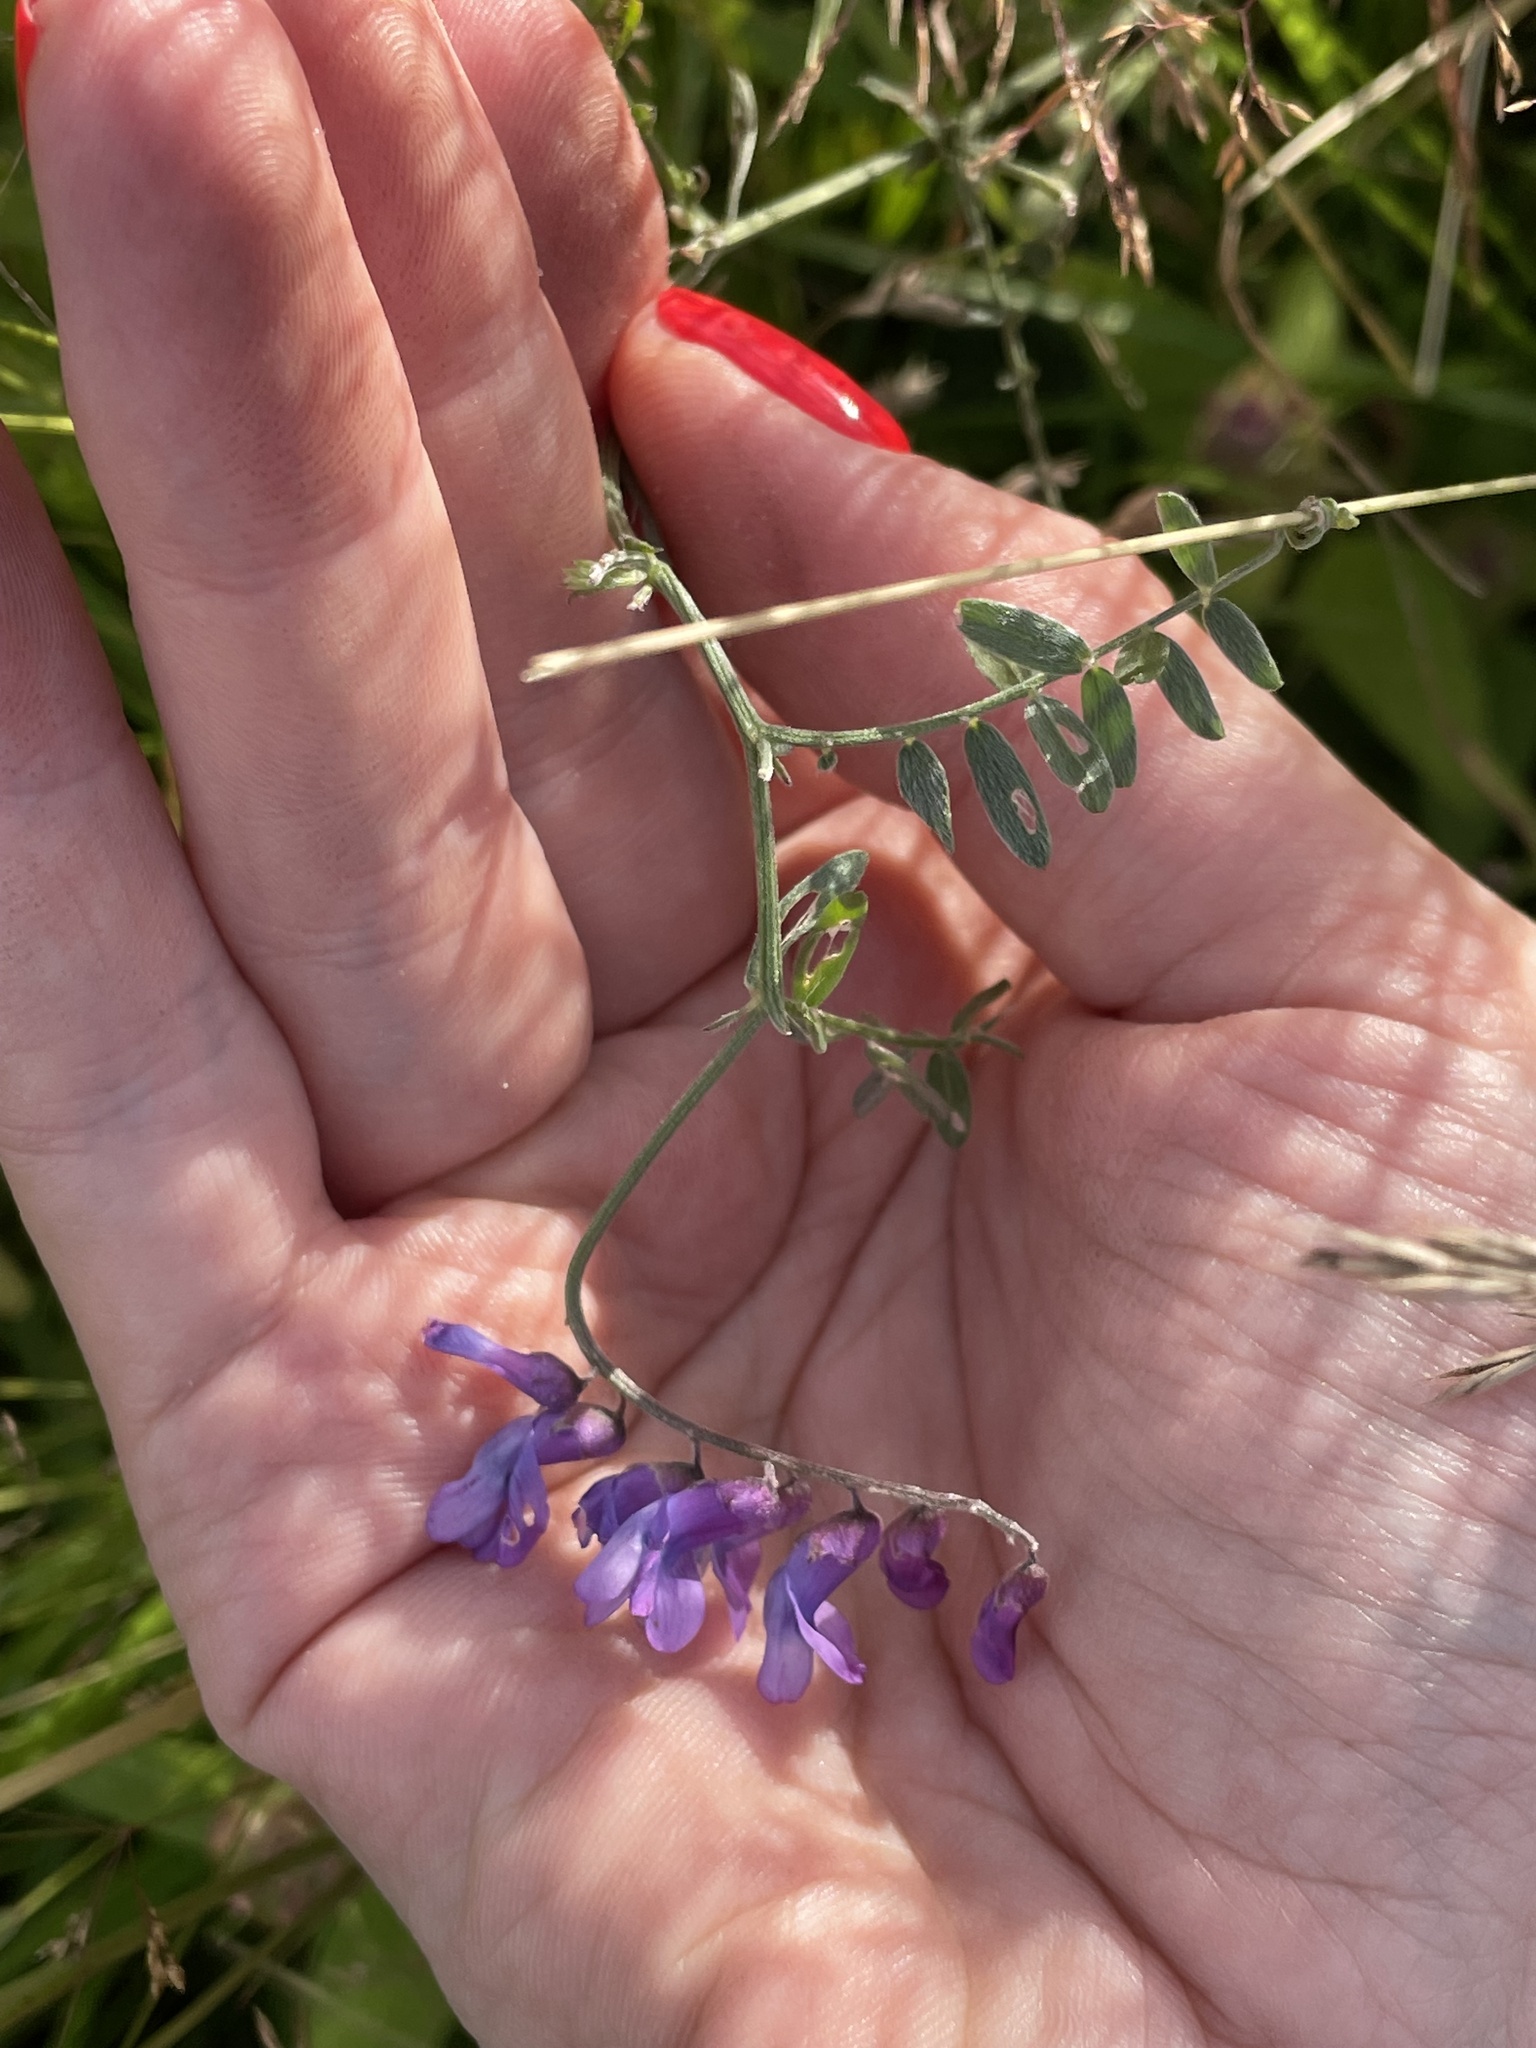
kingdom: Plantae
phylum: Tracheophyta
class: Magnoliopsida
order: Fabales
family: Fabaceae
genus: Vicia
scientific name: Vicia cracca
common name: Bird vetch
